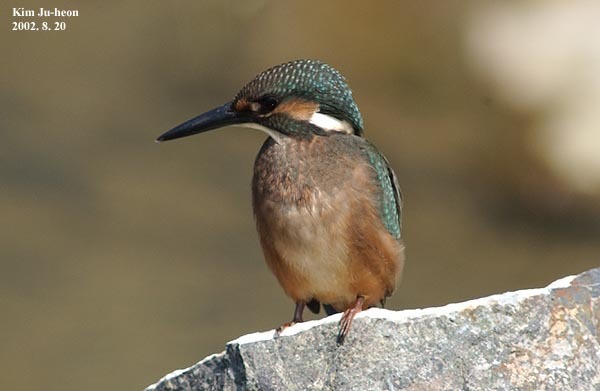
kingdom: Animalia
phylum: Chordata
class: Aves
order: Coraciiformes
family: Alcedinidae
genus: Alcedo
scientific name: Alcedo atthis
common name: Common kingfisher
